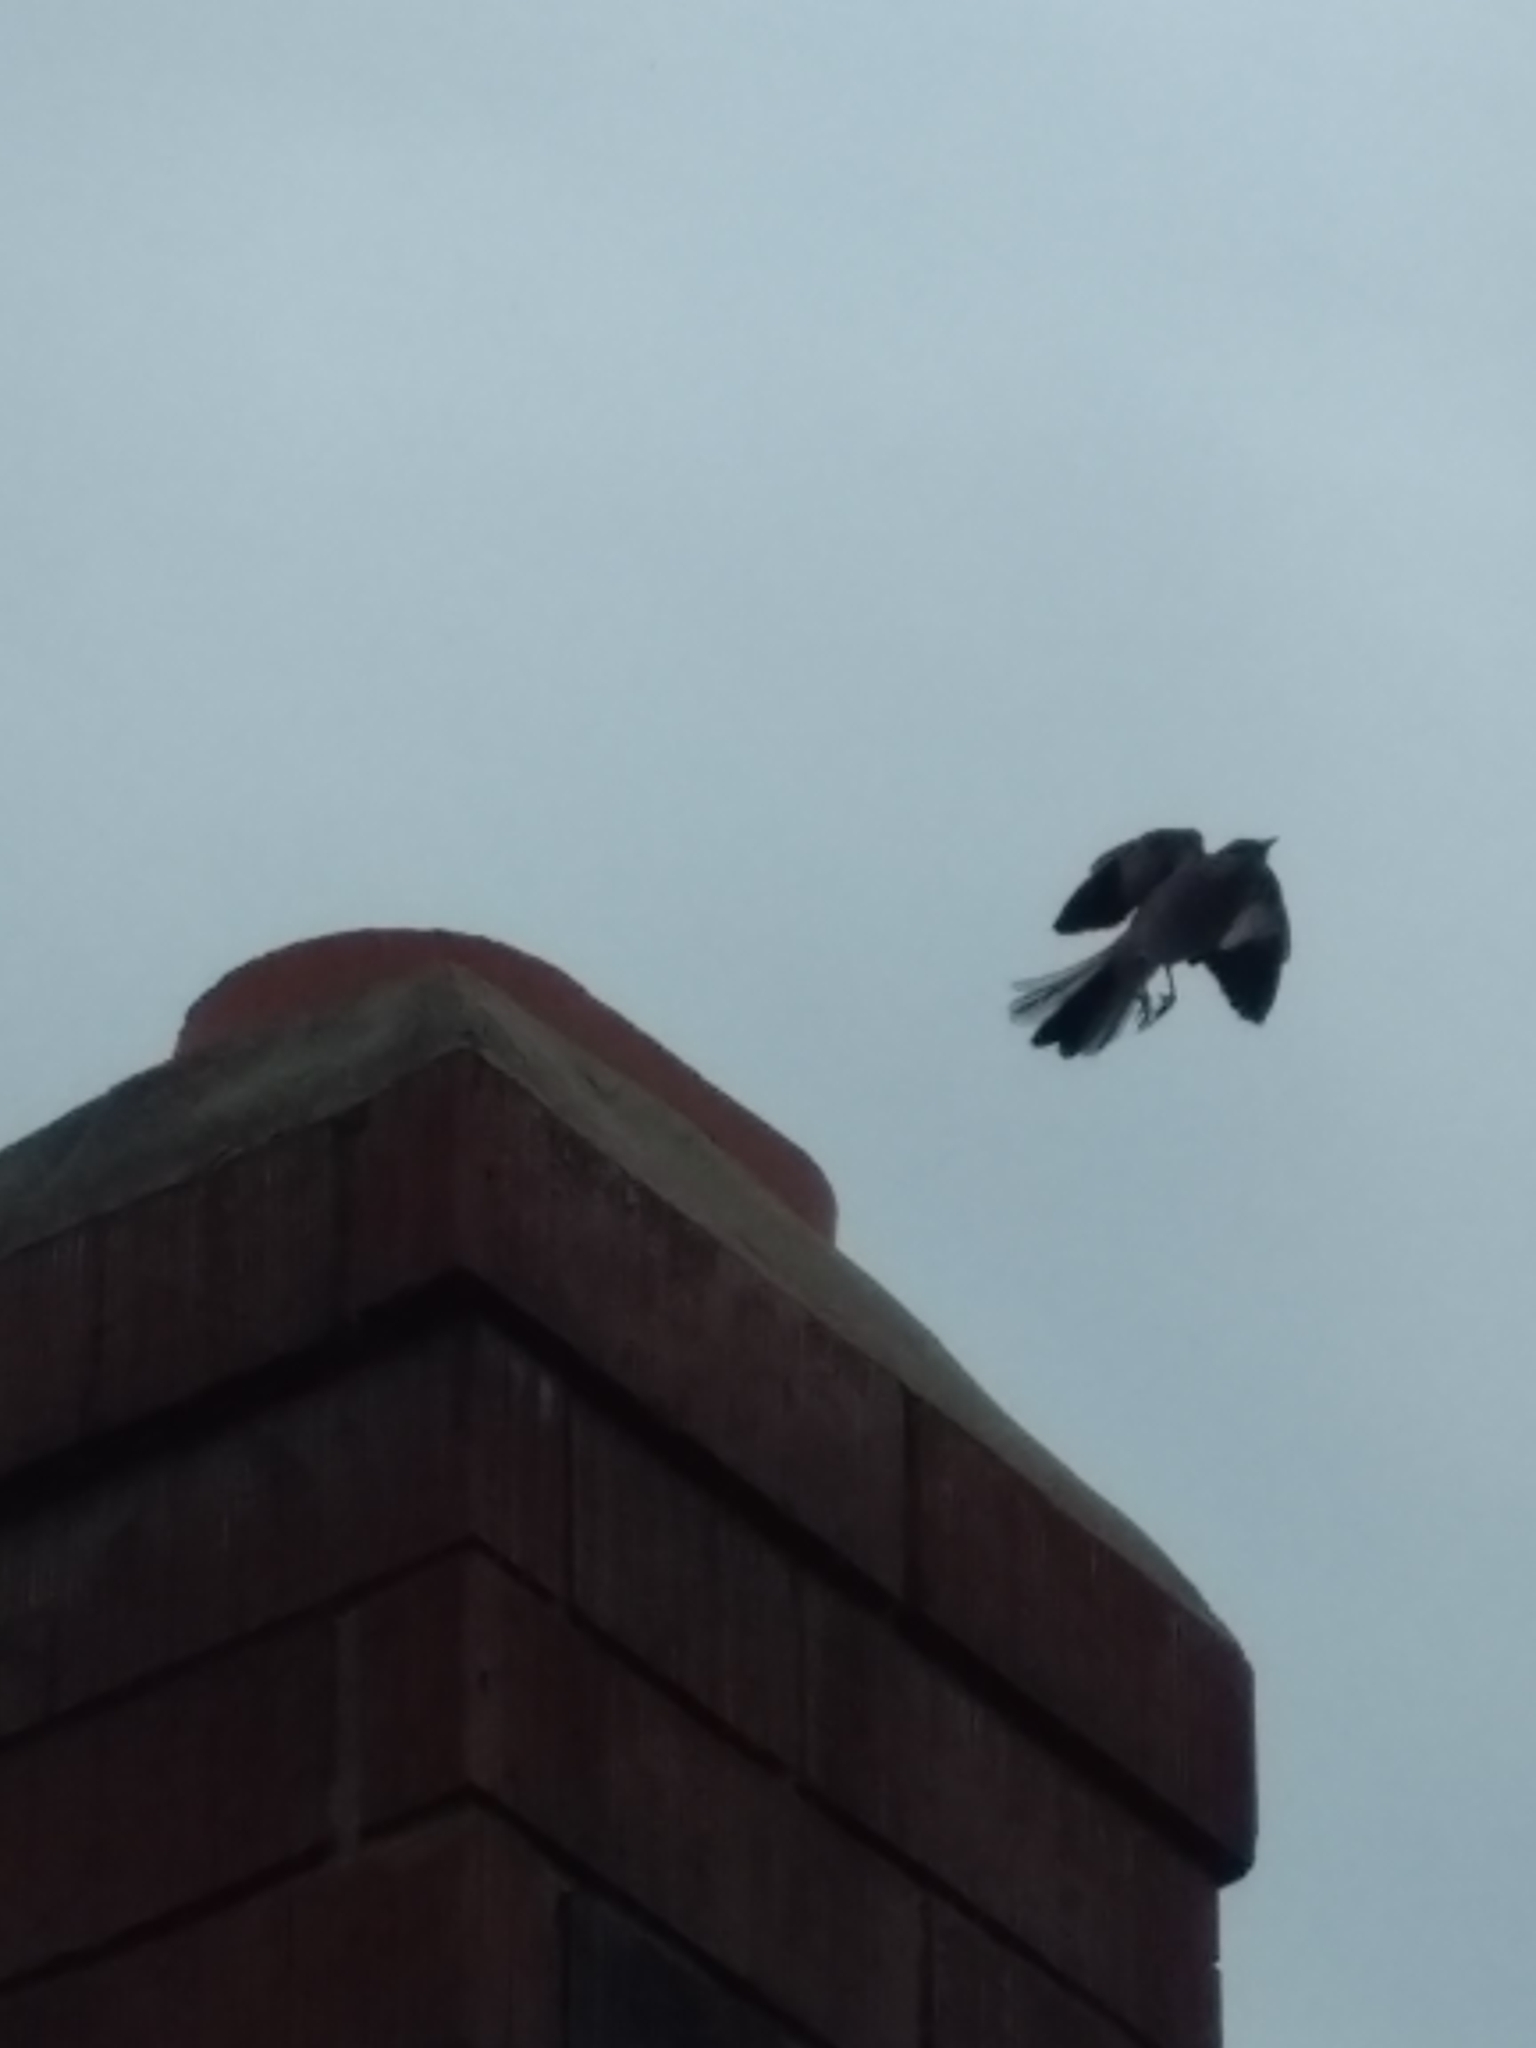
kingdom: Animalia
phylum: Chordata
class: Aves
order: Passeriformes
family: Mimidae
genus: Mimus
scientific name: Mimus polyglottos
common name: Northern mockingbird
